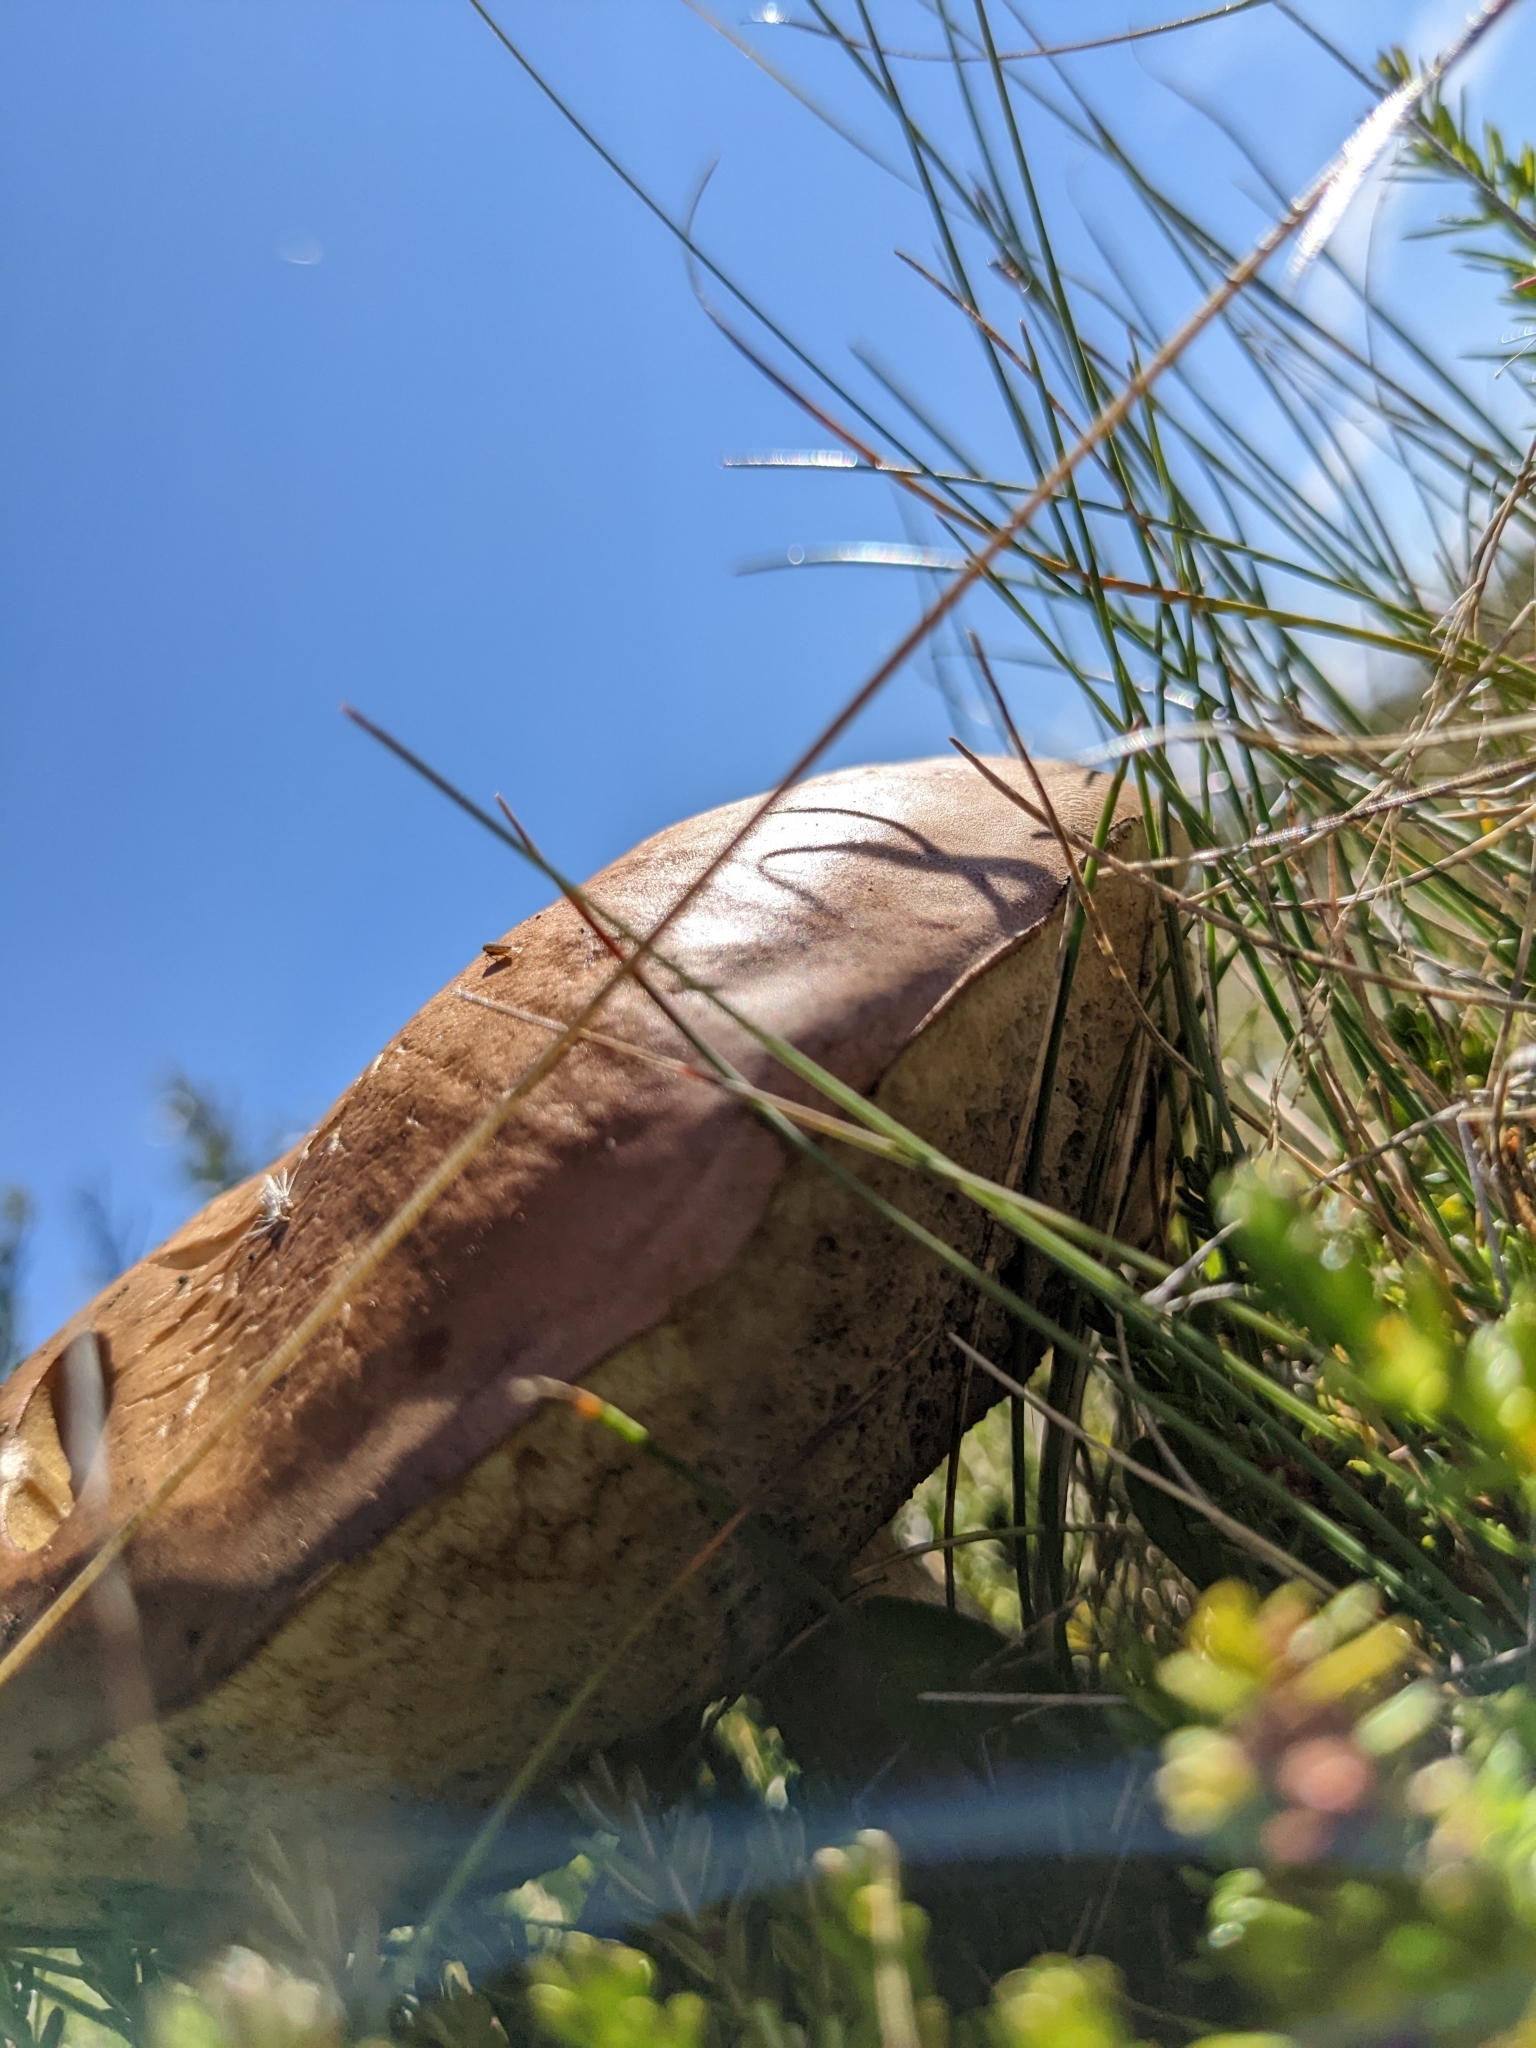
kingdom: Fungi
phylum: Basidiomycota
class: Agaricomycetes
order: Boletales
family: Boletaceae
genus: Leccinum
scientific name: Leccinum scabrum
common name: Blushing bolete
